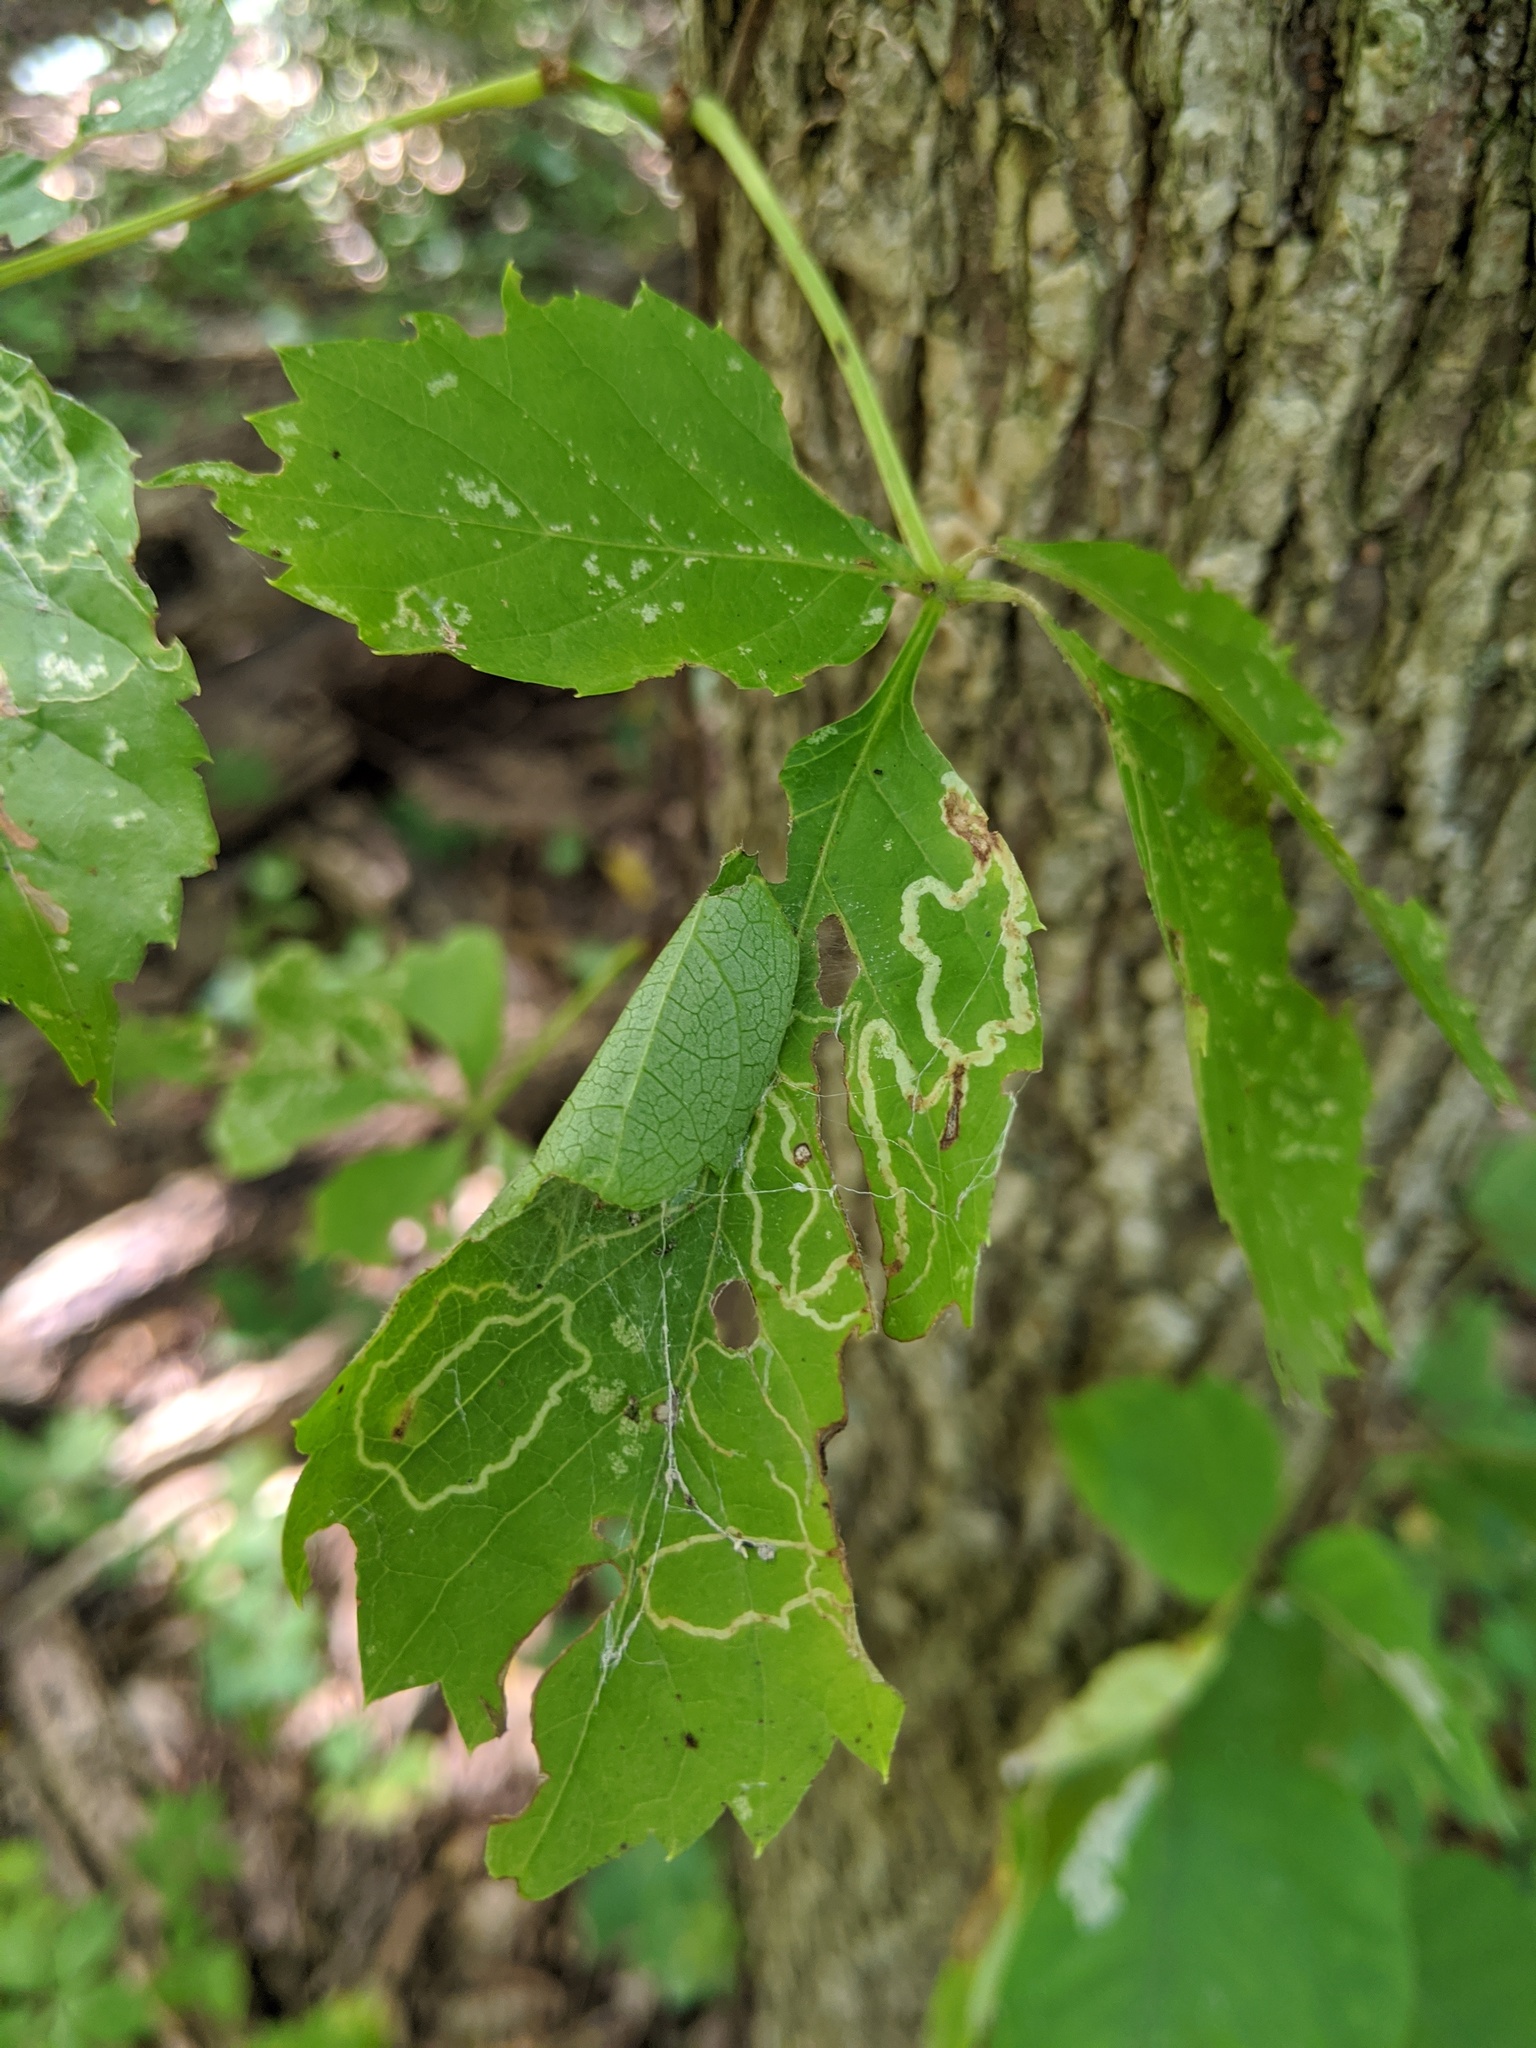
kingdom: Animalia
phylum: Arthropoda
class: Insecta
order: Lepidoptera
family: Gracillariidae
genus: Phyllocnistis
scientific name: Phyllocnistis vitifoliella
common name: Grape leaf-miner moth
